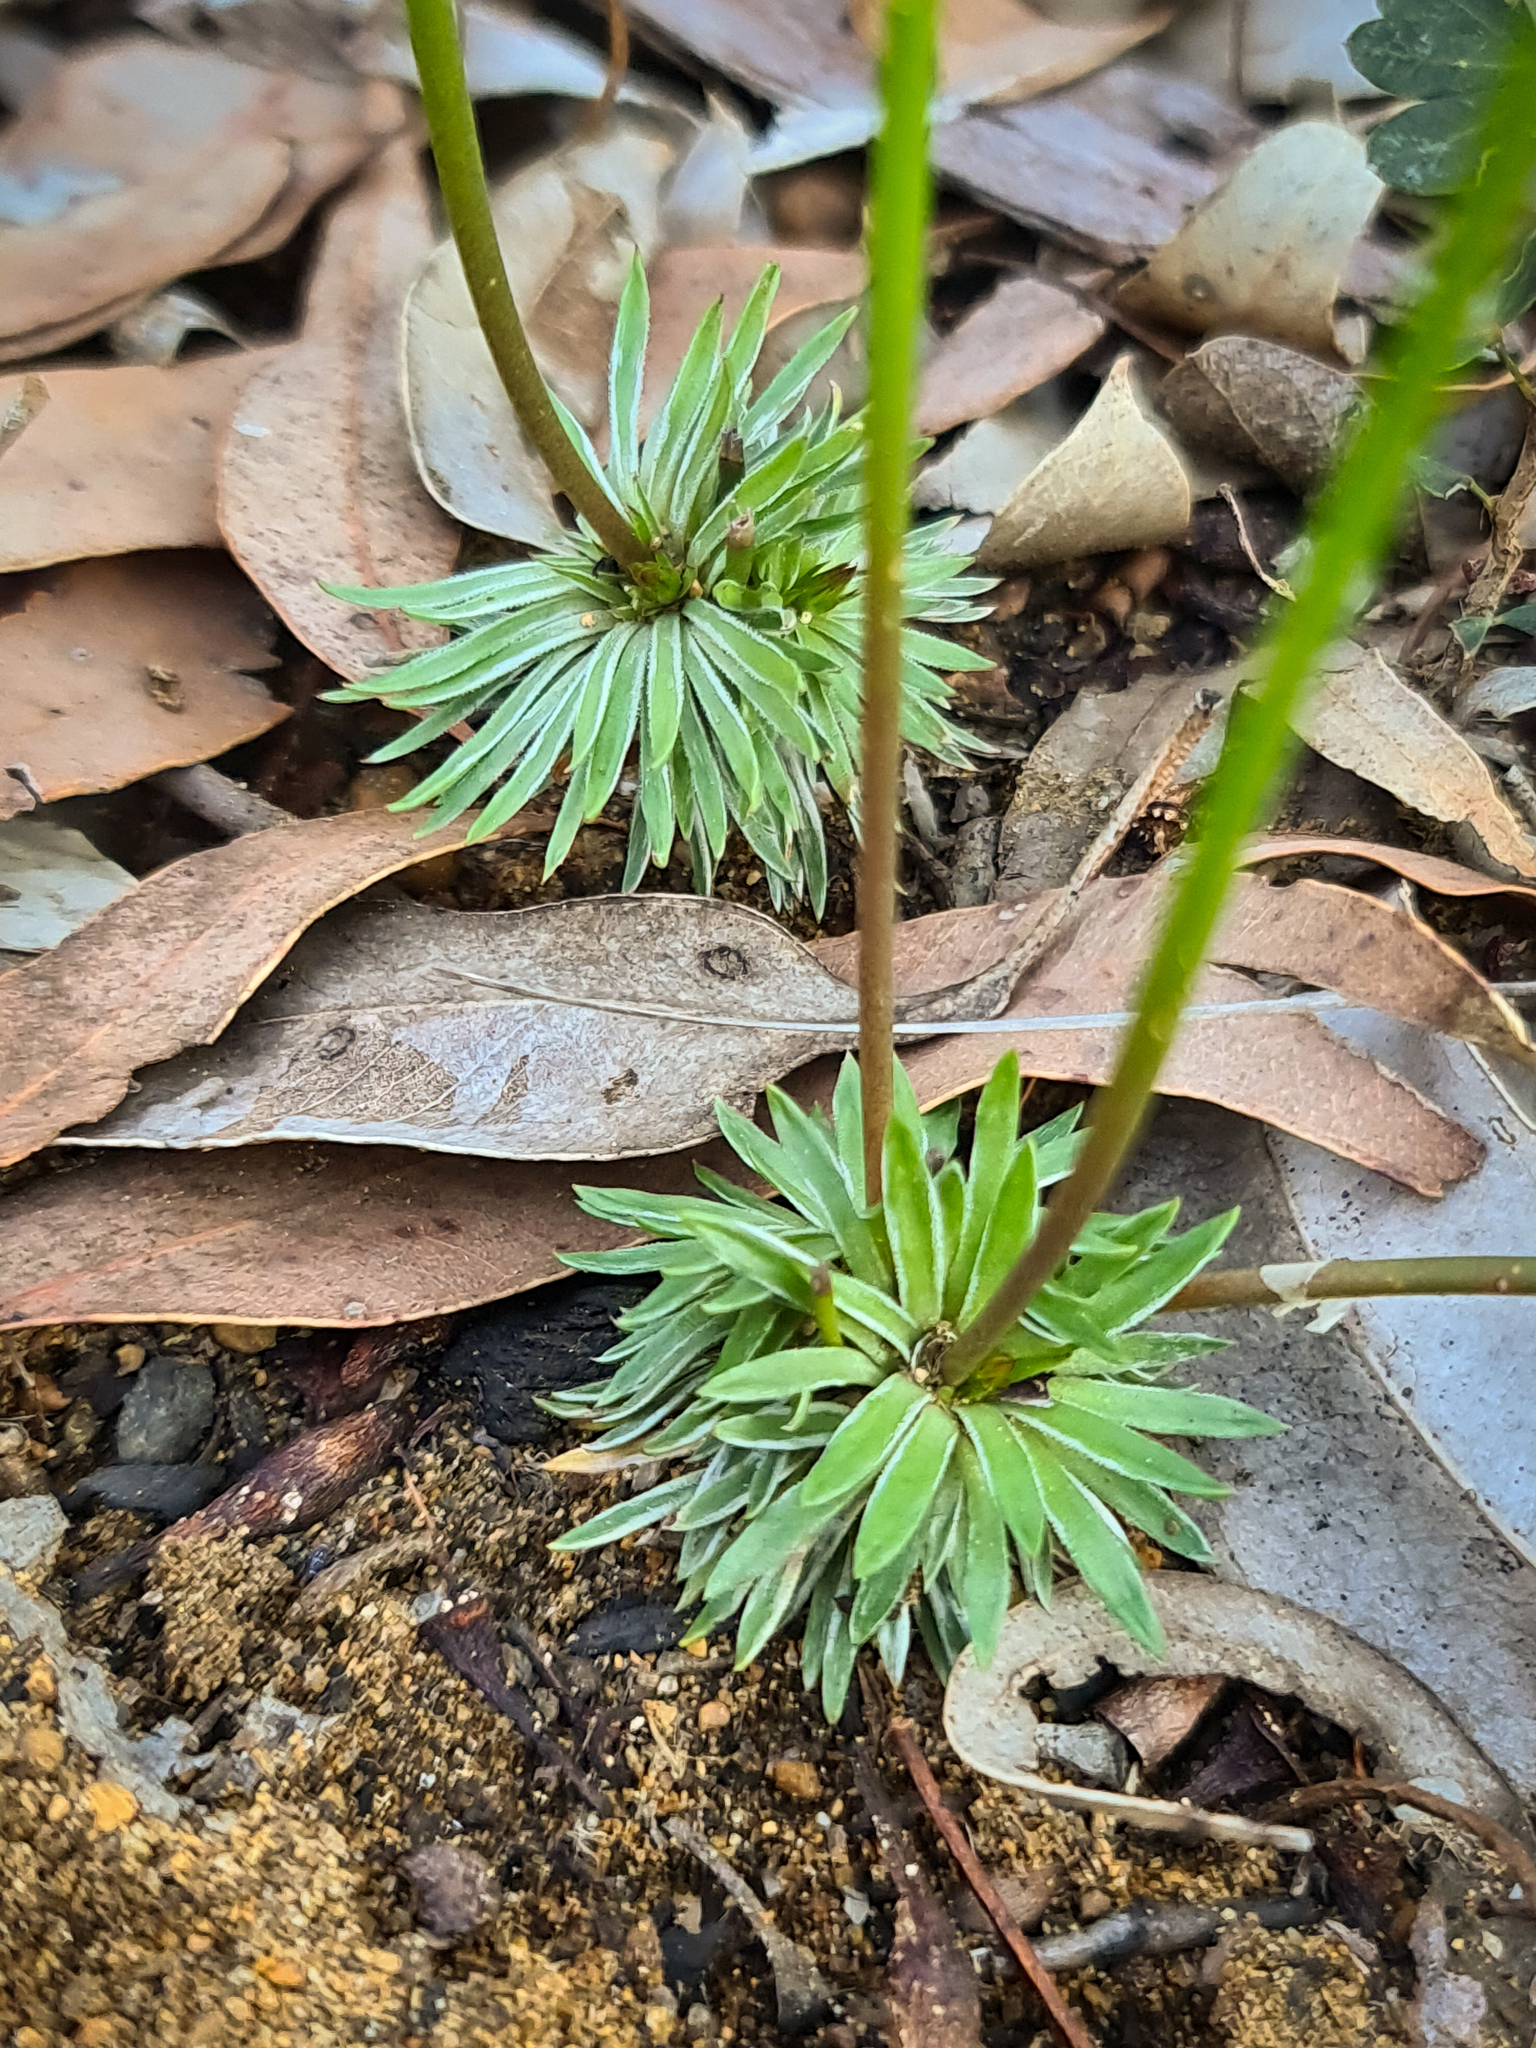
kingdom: Plantae
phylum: Tracheophyta
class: Magnoliopsida
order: Asterales
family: Stylidiaceae
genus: Stylidium
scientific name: Stylidium scariosum
